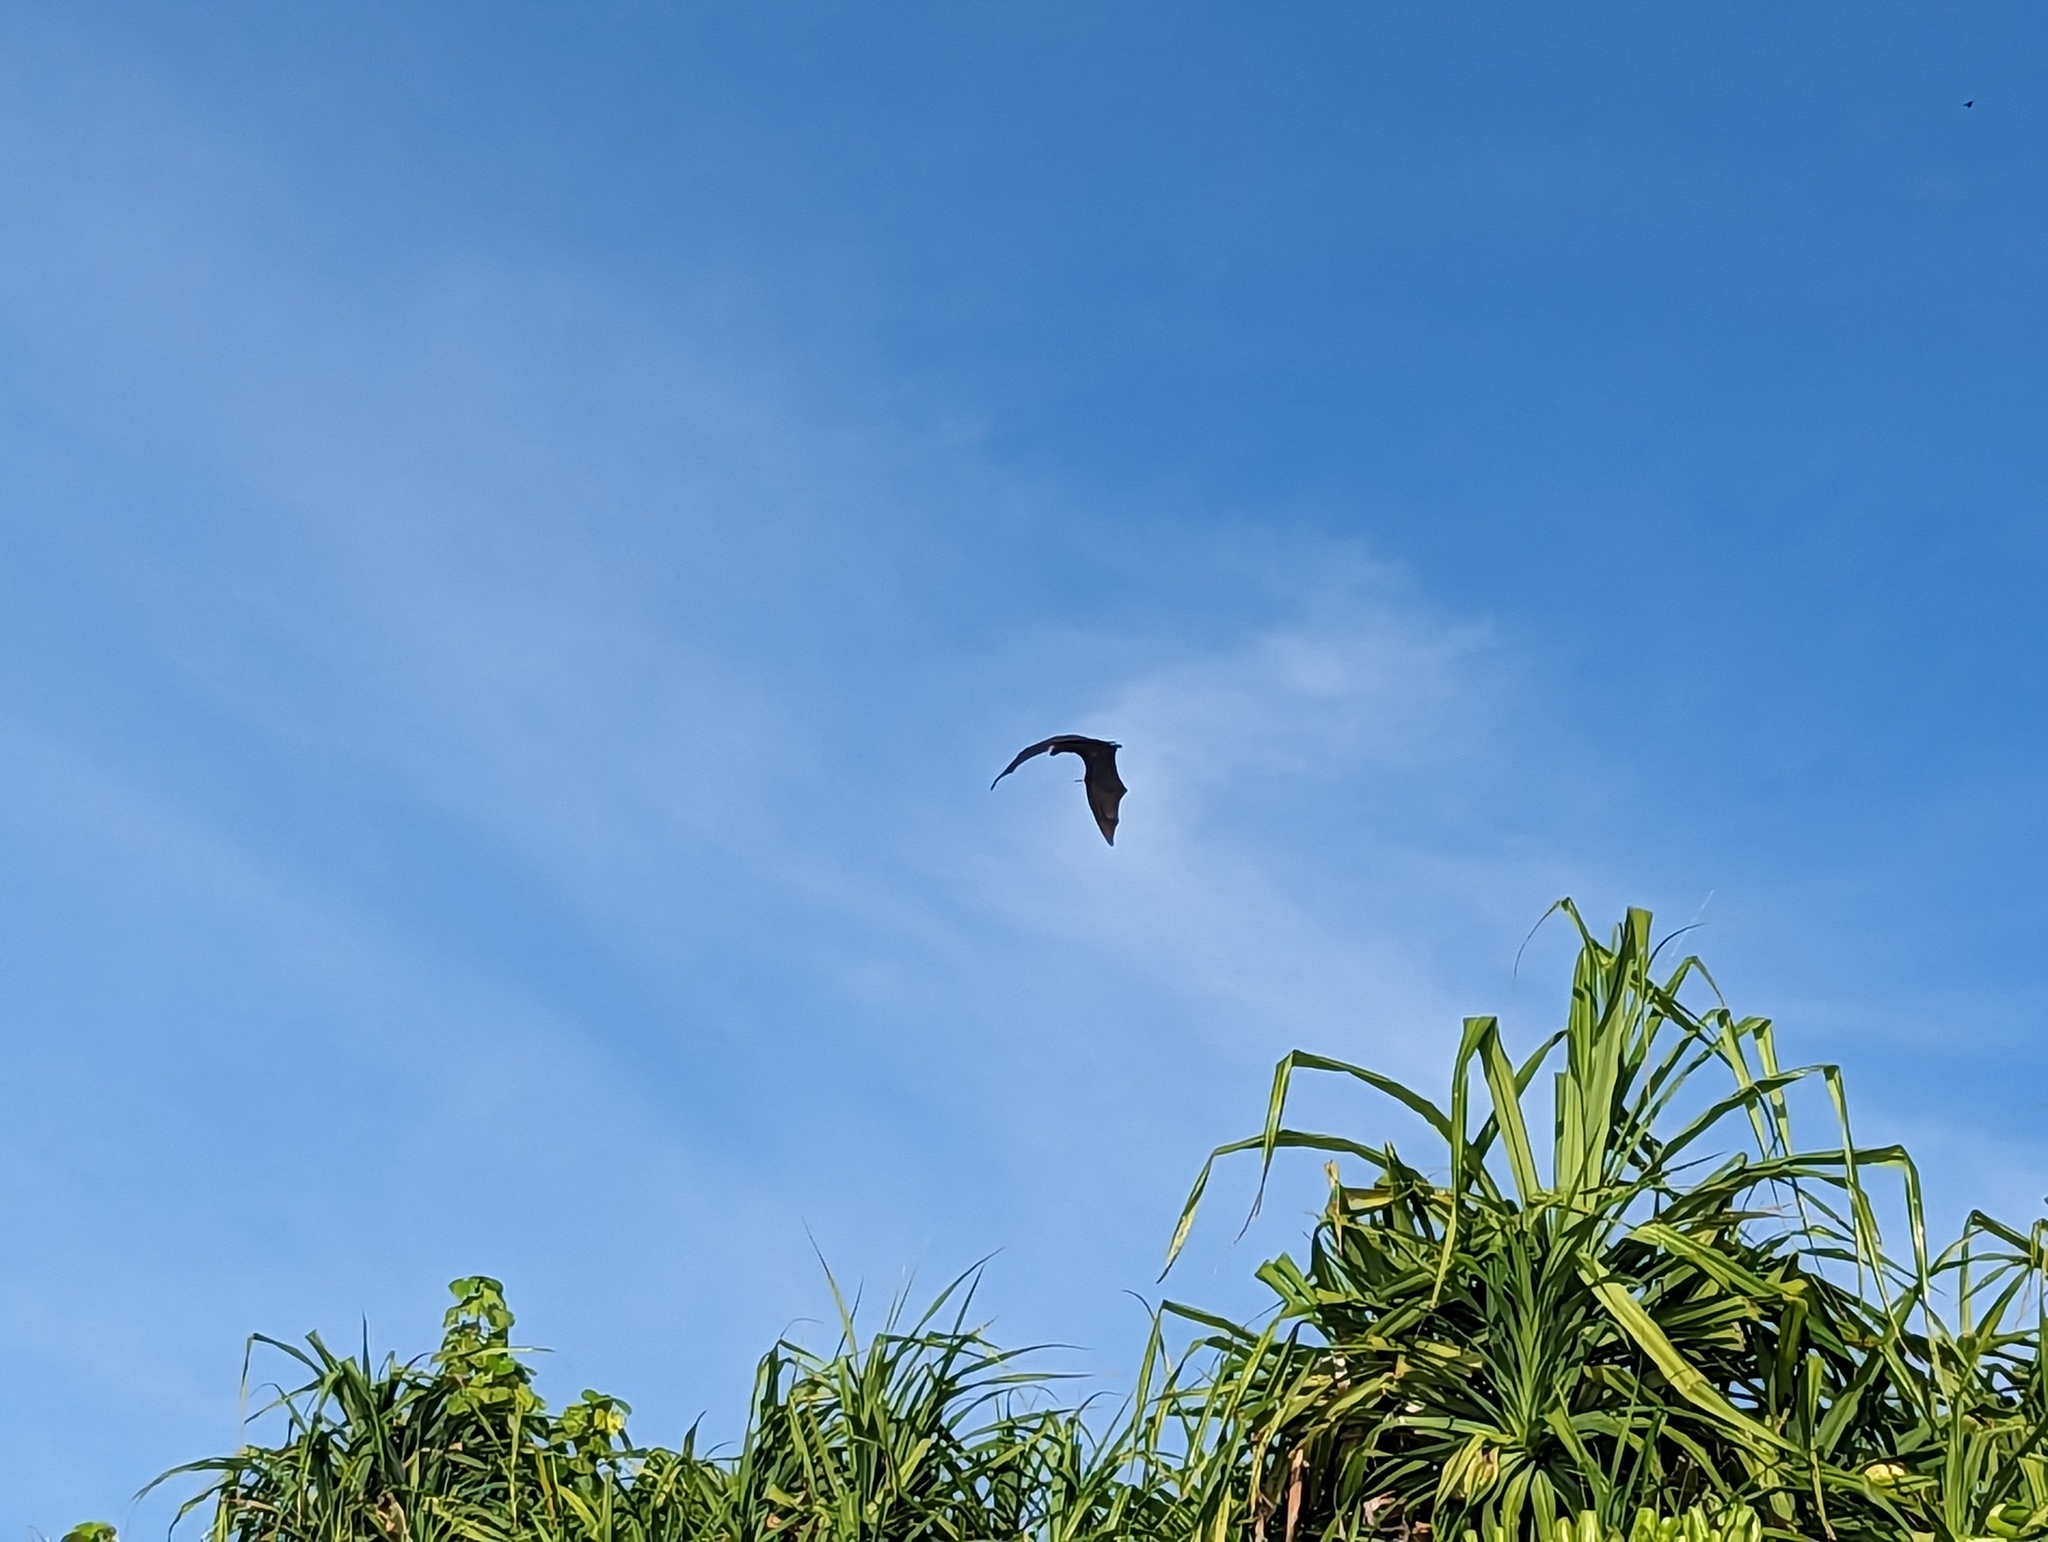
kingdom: Animalia
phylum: Chordata
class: Mammalia
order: Chiroptera
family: Pteropodidae
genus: Pteropus
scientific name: Pteropus vampyrus
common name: Large flying fox
